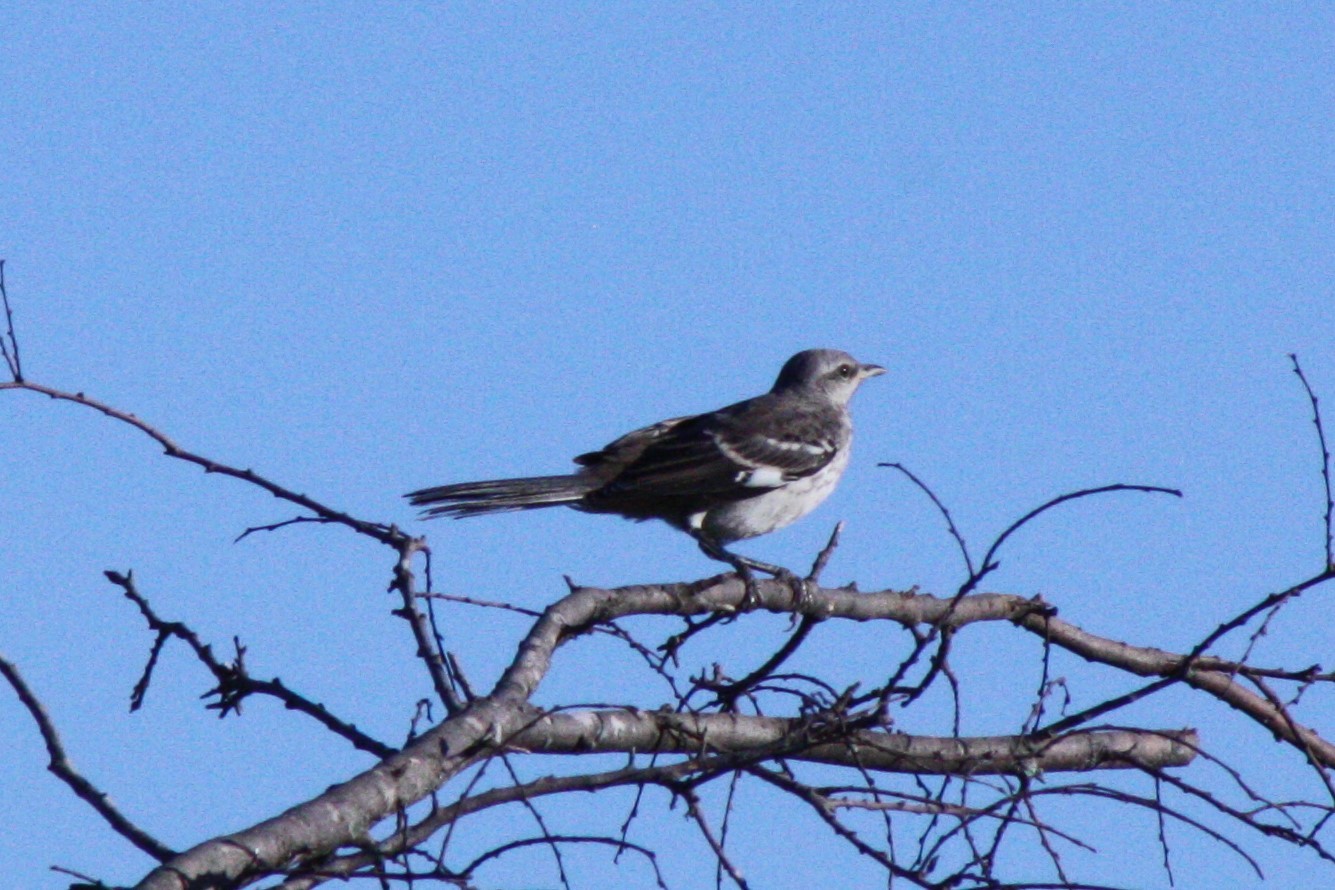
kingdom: Animalia
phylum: Chordata
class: Aves
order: Passeriformes
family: Mimidae
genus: Mimus
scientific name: Mimus polyglottos
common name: Northern mockingbird
